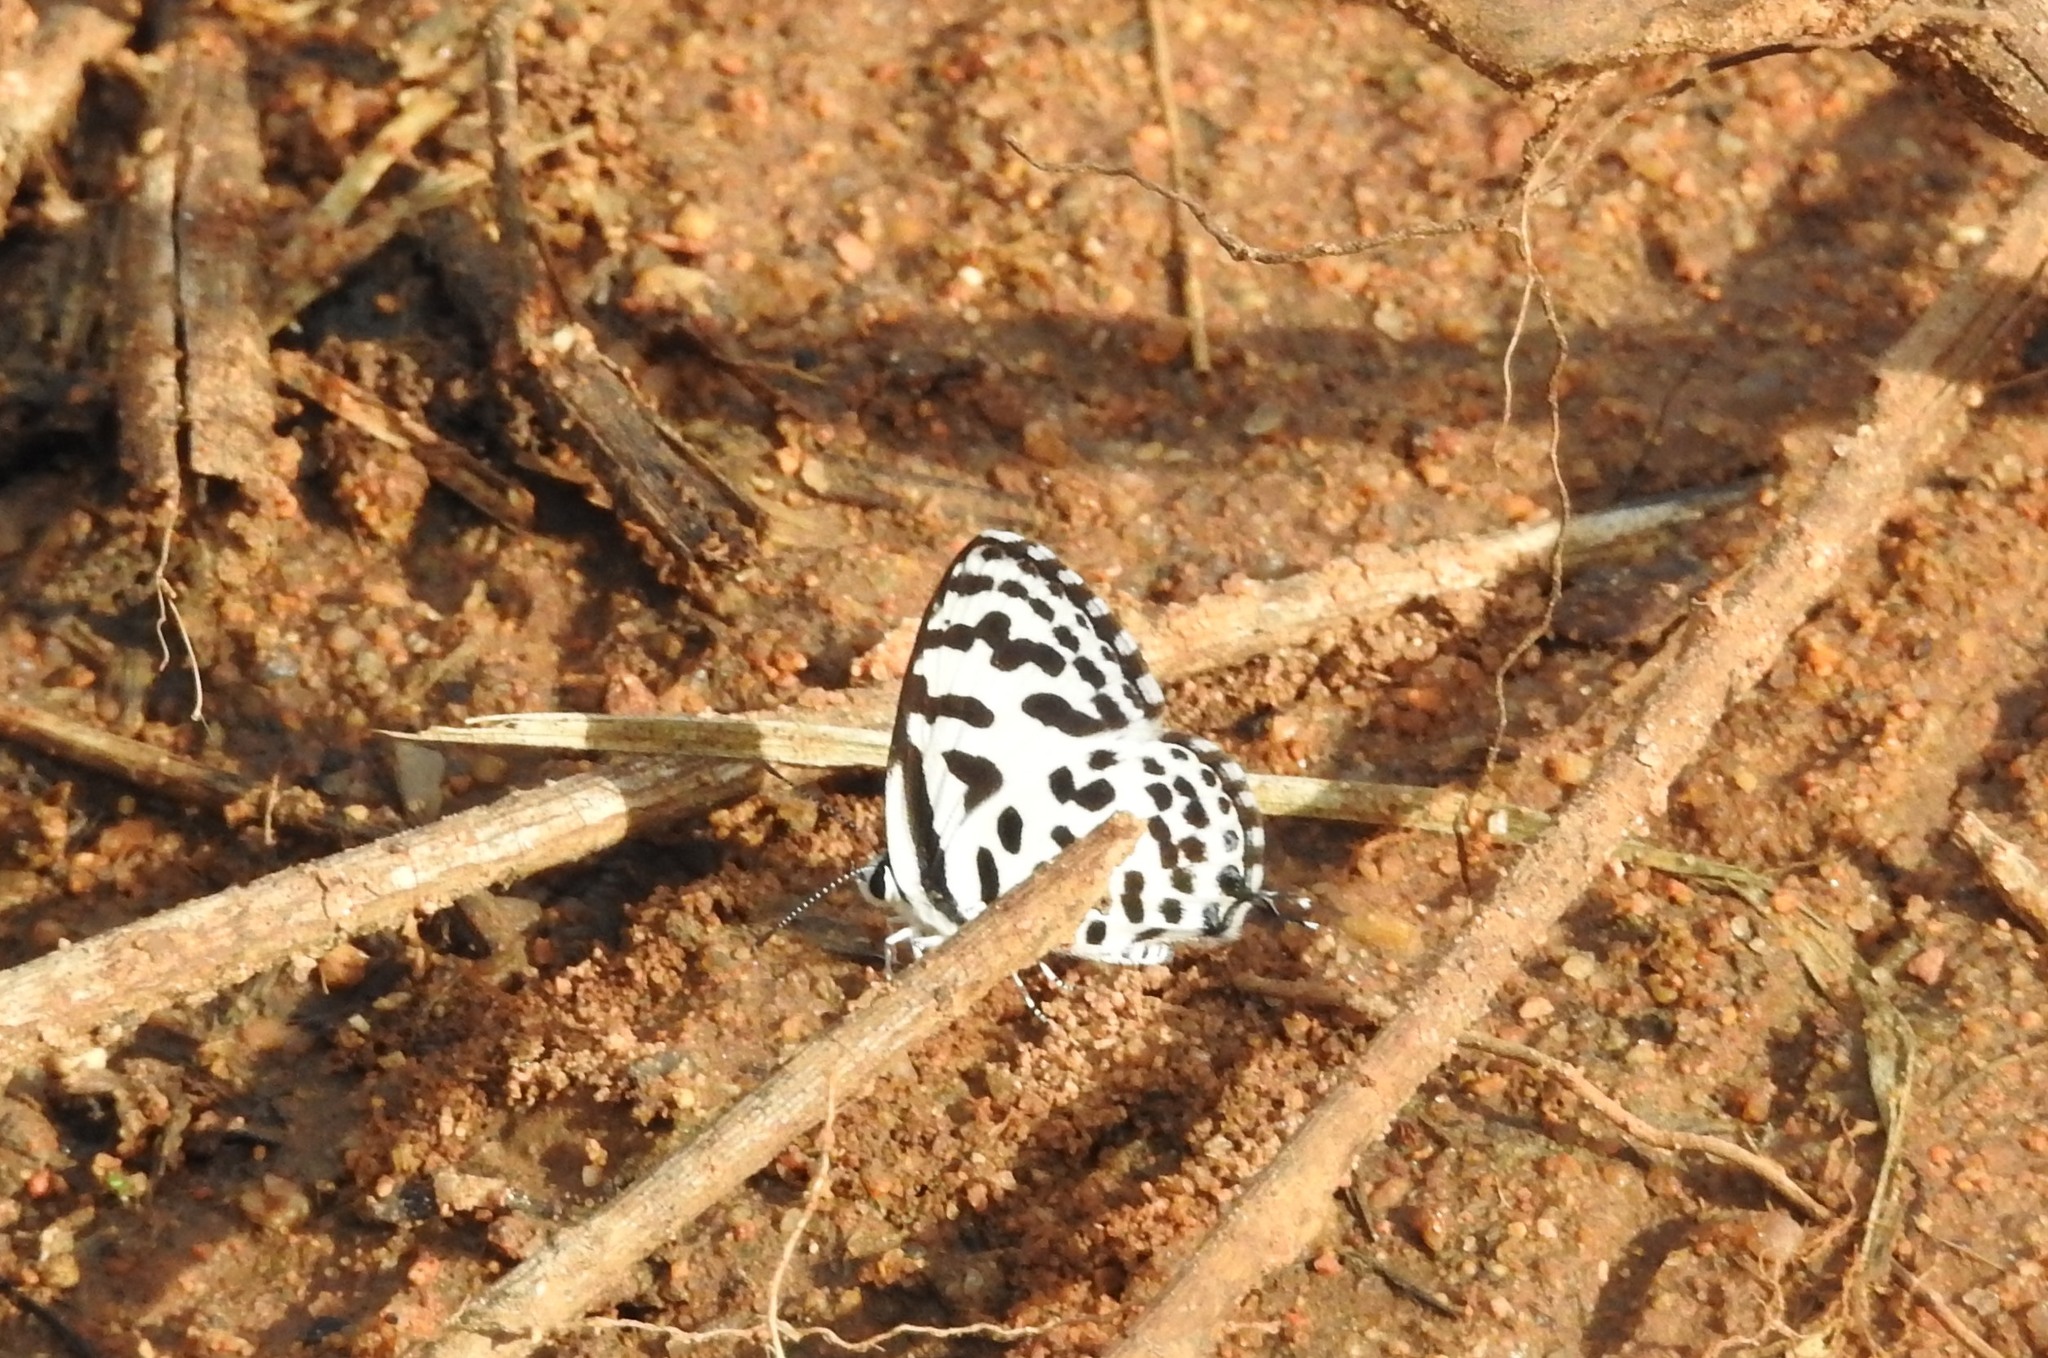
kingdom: Animalia
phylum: Arthropoda
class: Insecta
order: Lepidoptera
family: Lycaenidae
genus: Castalius
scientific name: Castalius rosimon
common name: Common pierrot
